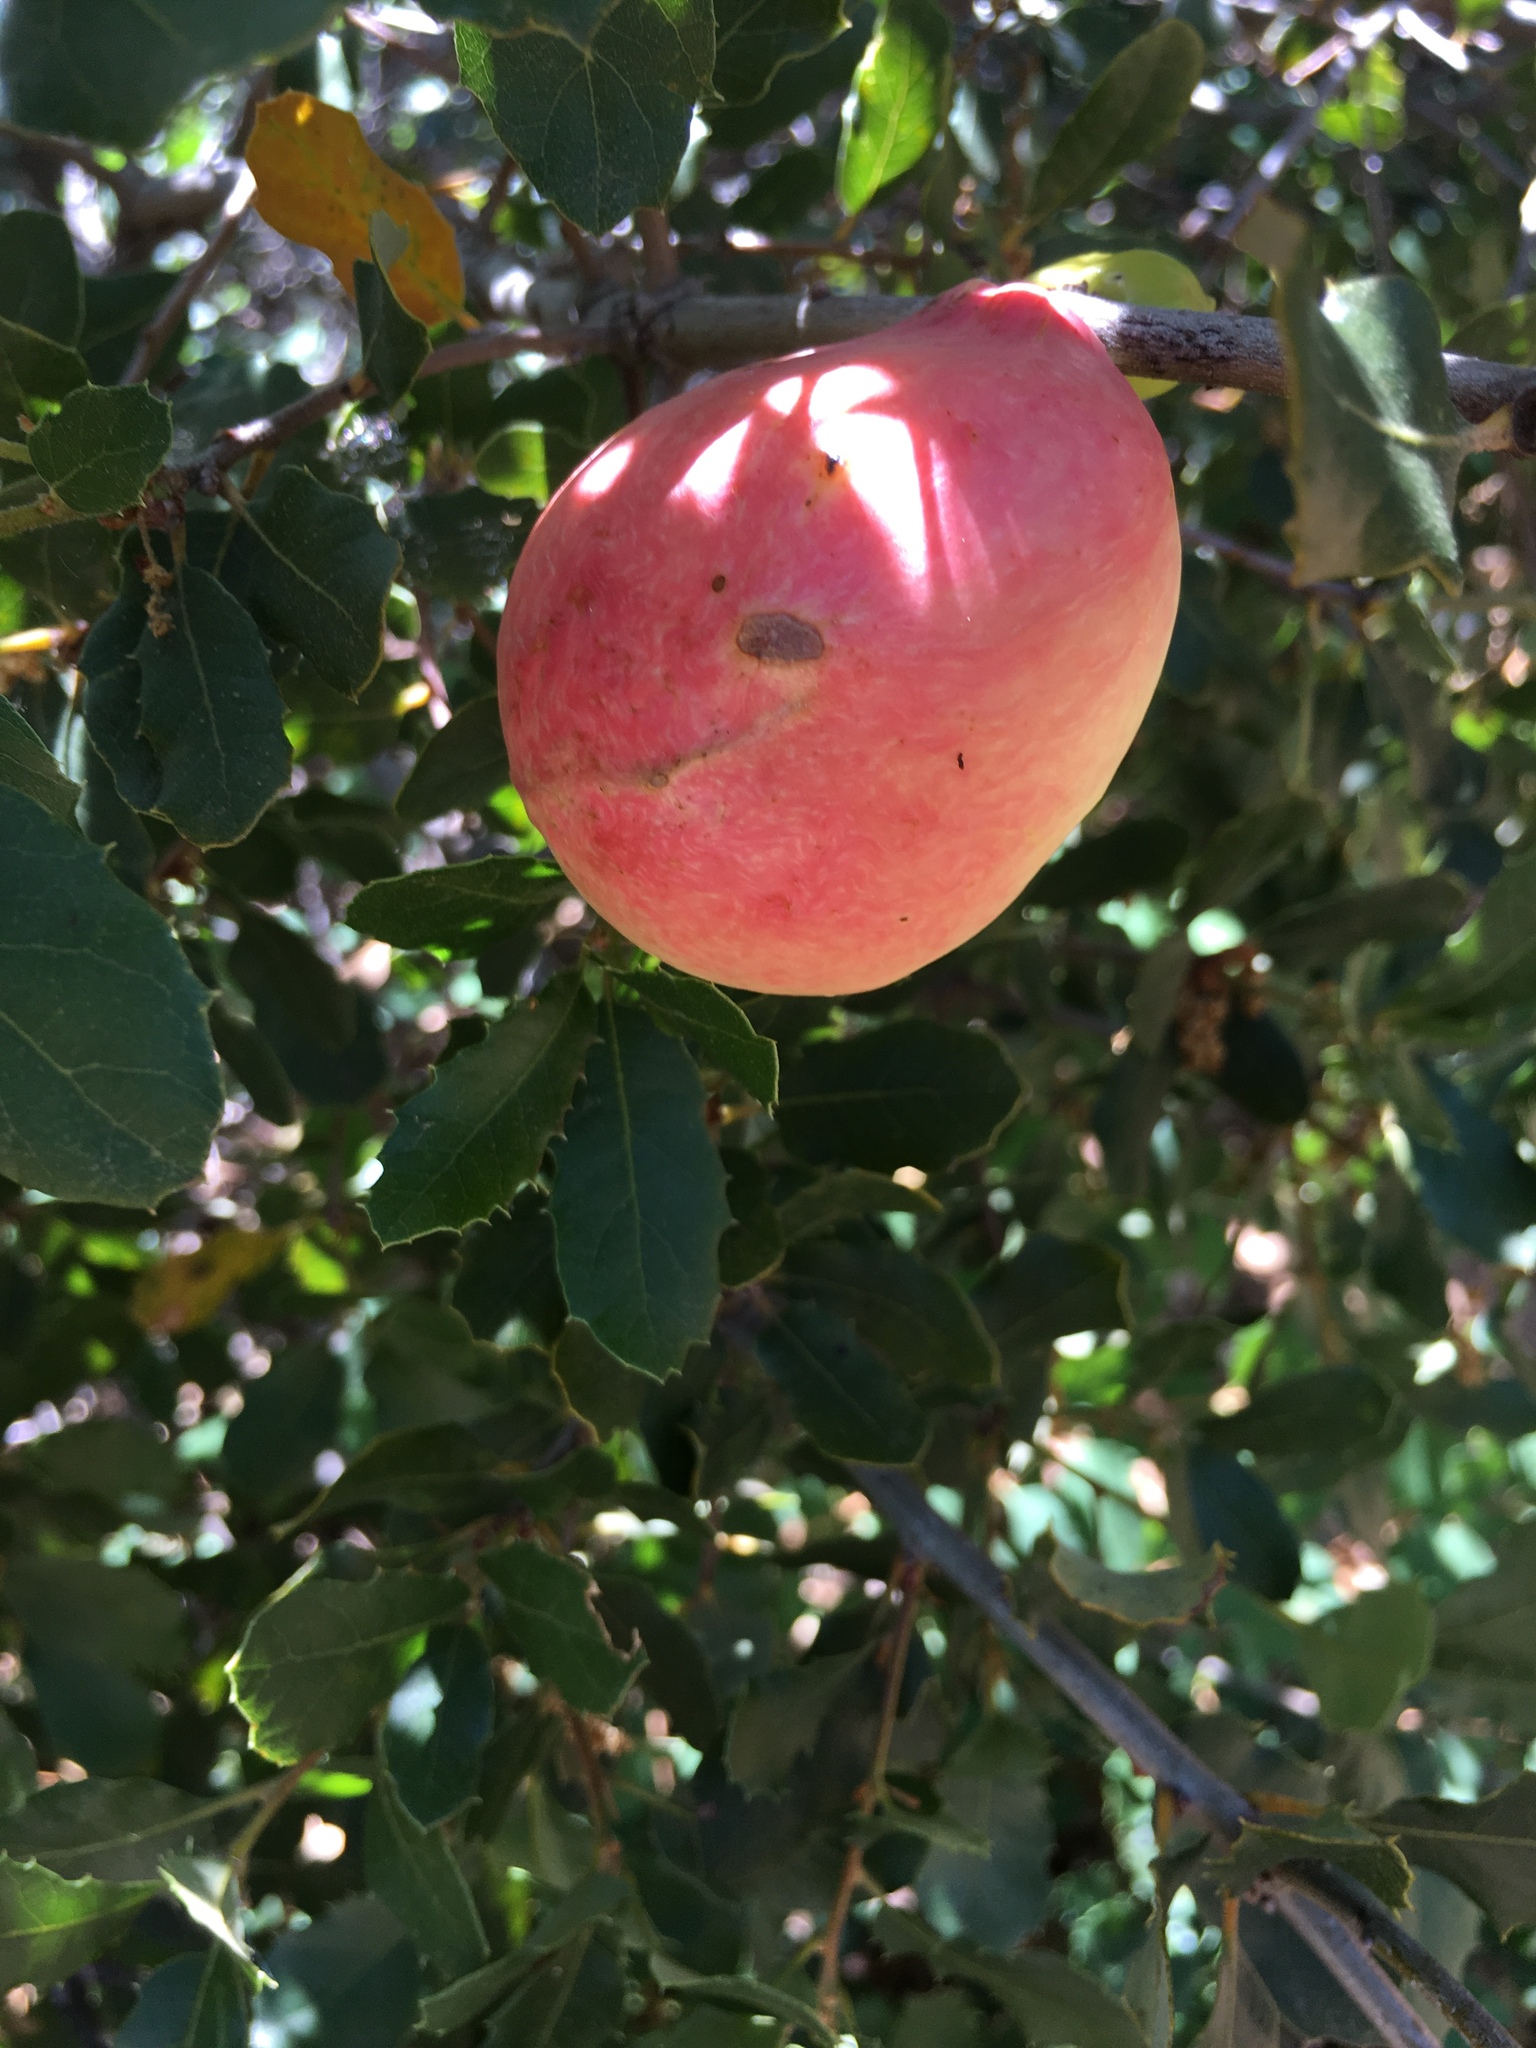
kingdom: Animalia
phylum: Arthropoda
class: Insecta
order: Hymenoptera
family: Cynipidae
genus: Andricus
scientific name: Andricus quercuscalifornicus
